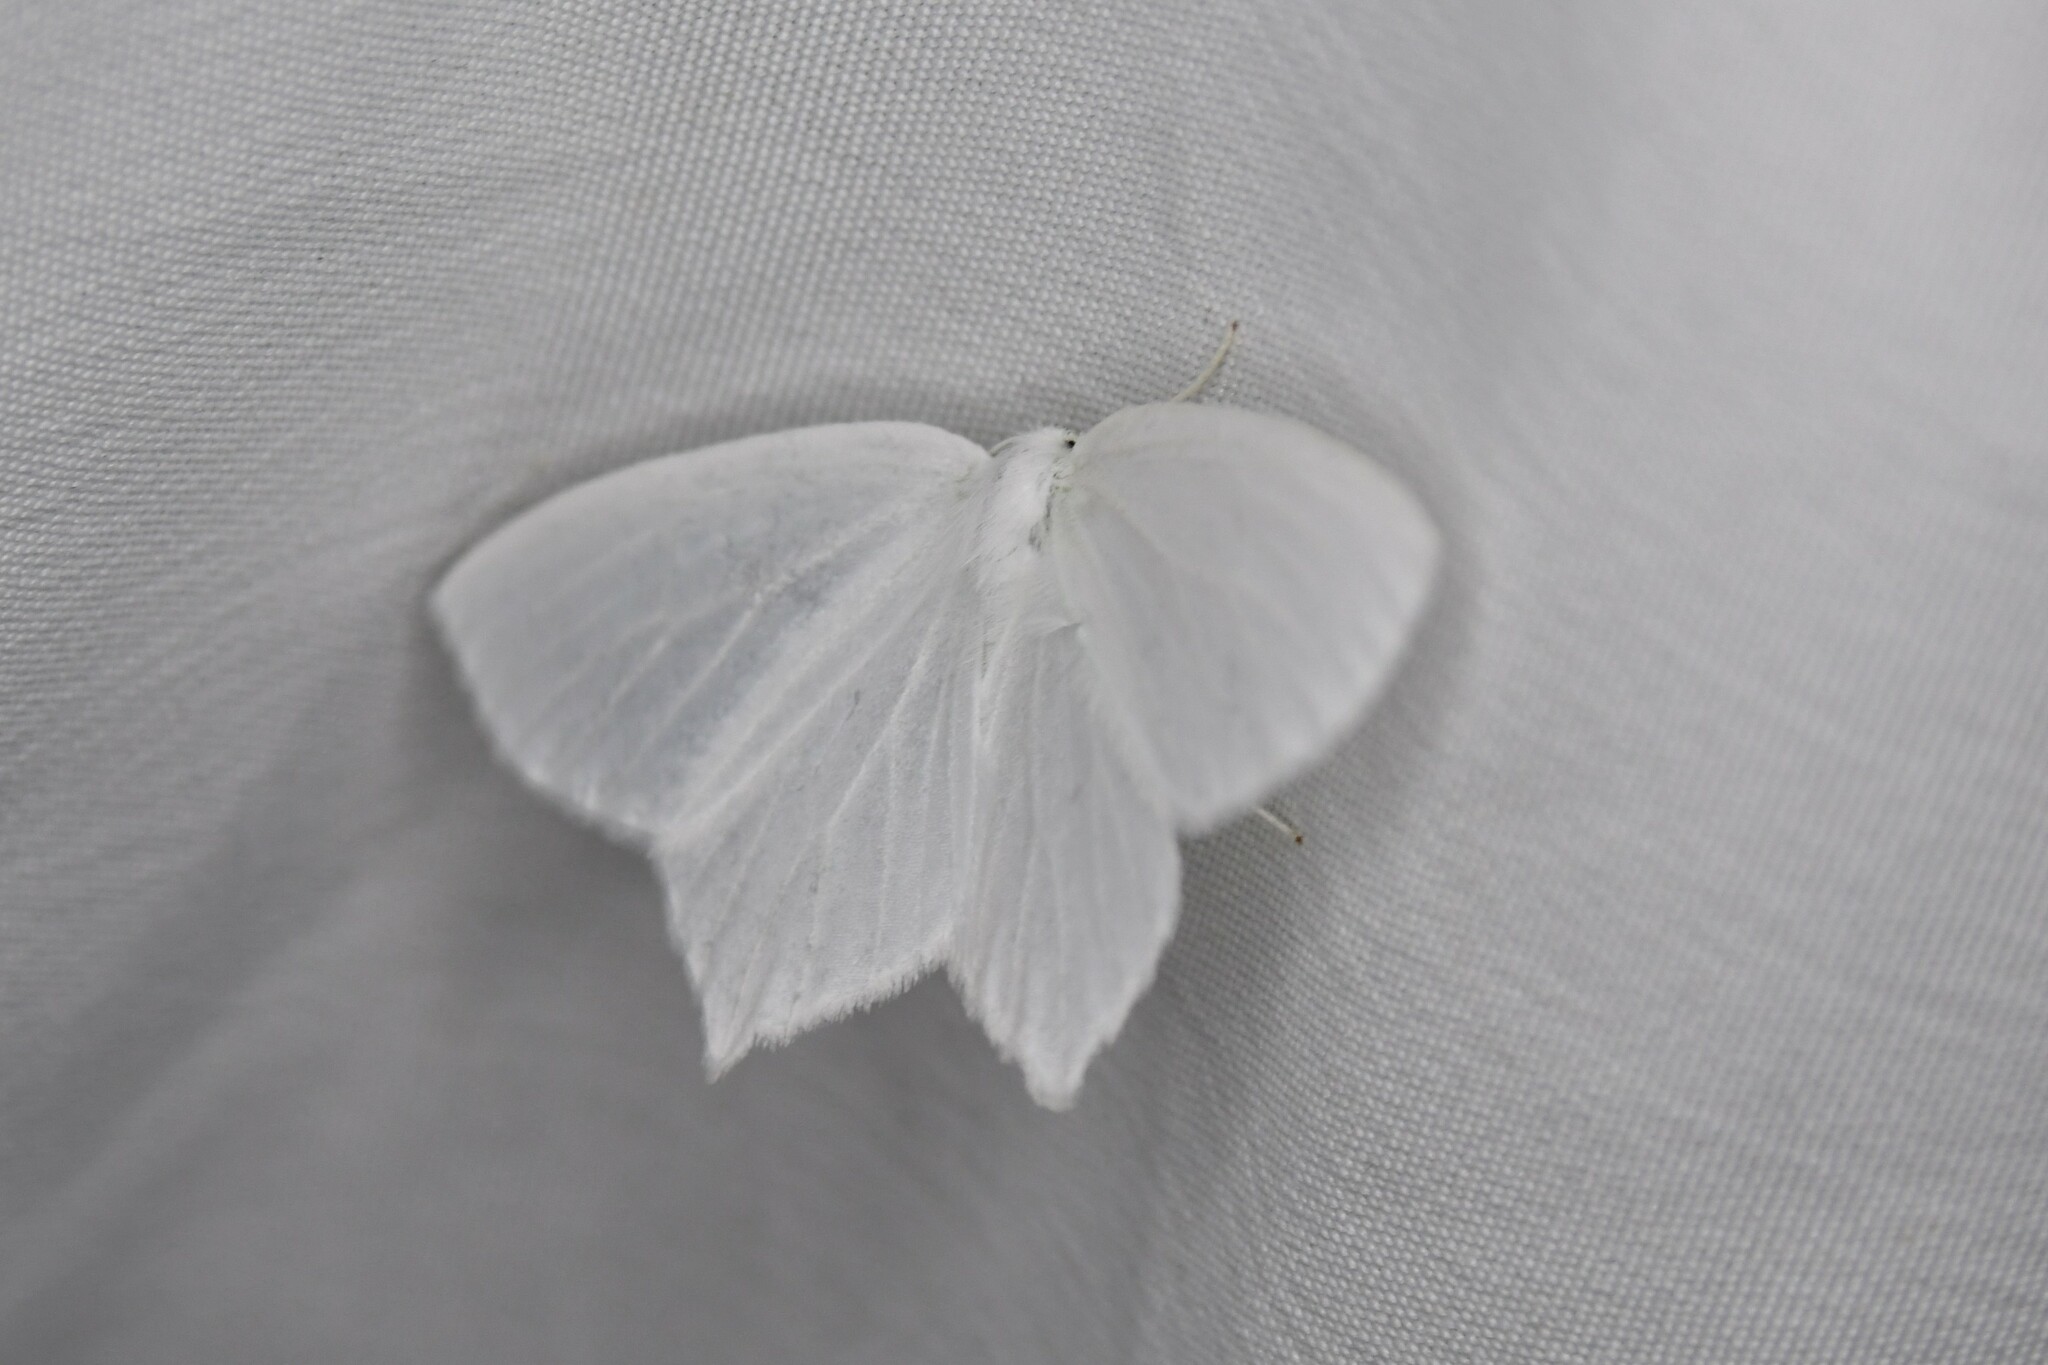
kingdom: Animalia
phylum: Arthropoda
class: Insecta
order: Lepidoptera
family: Geometridae
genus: Eugonobapta
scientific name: Eugonobapta nivosaria
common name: Snowy geometer
